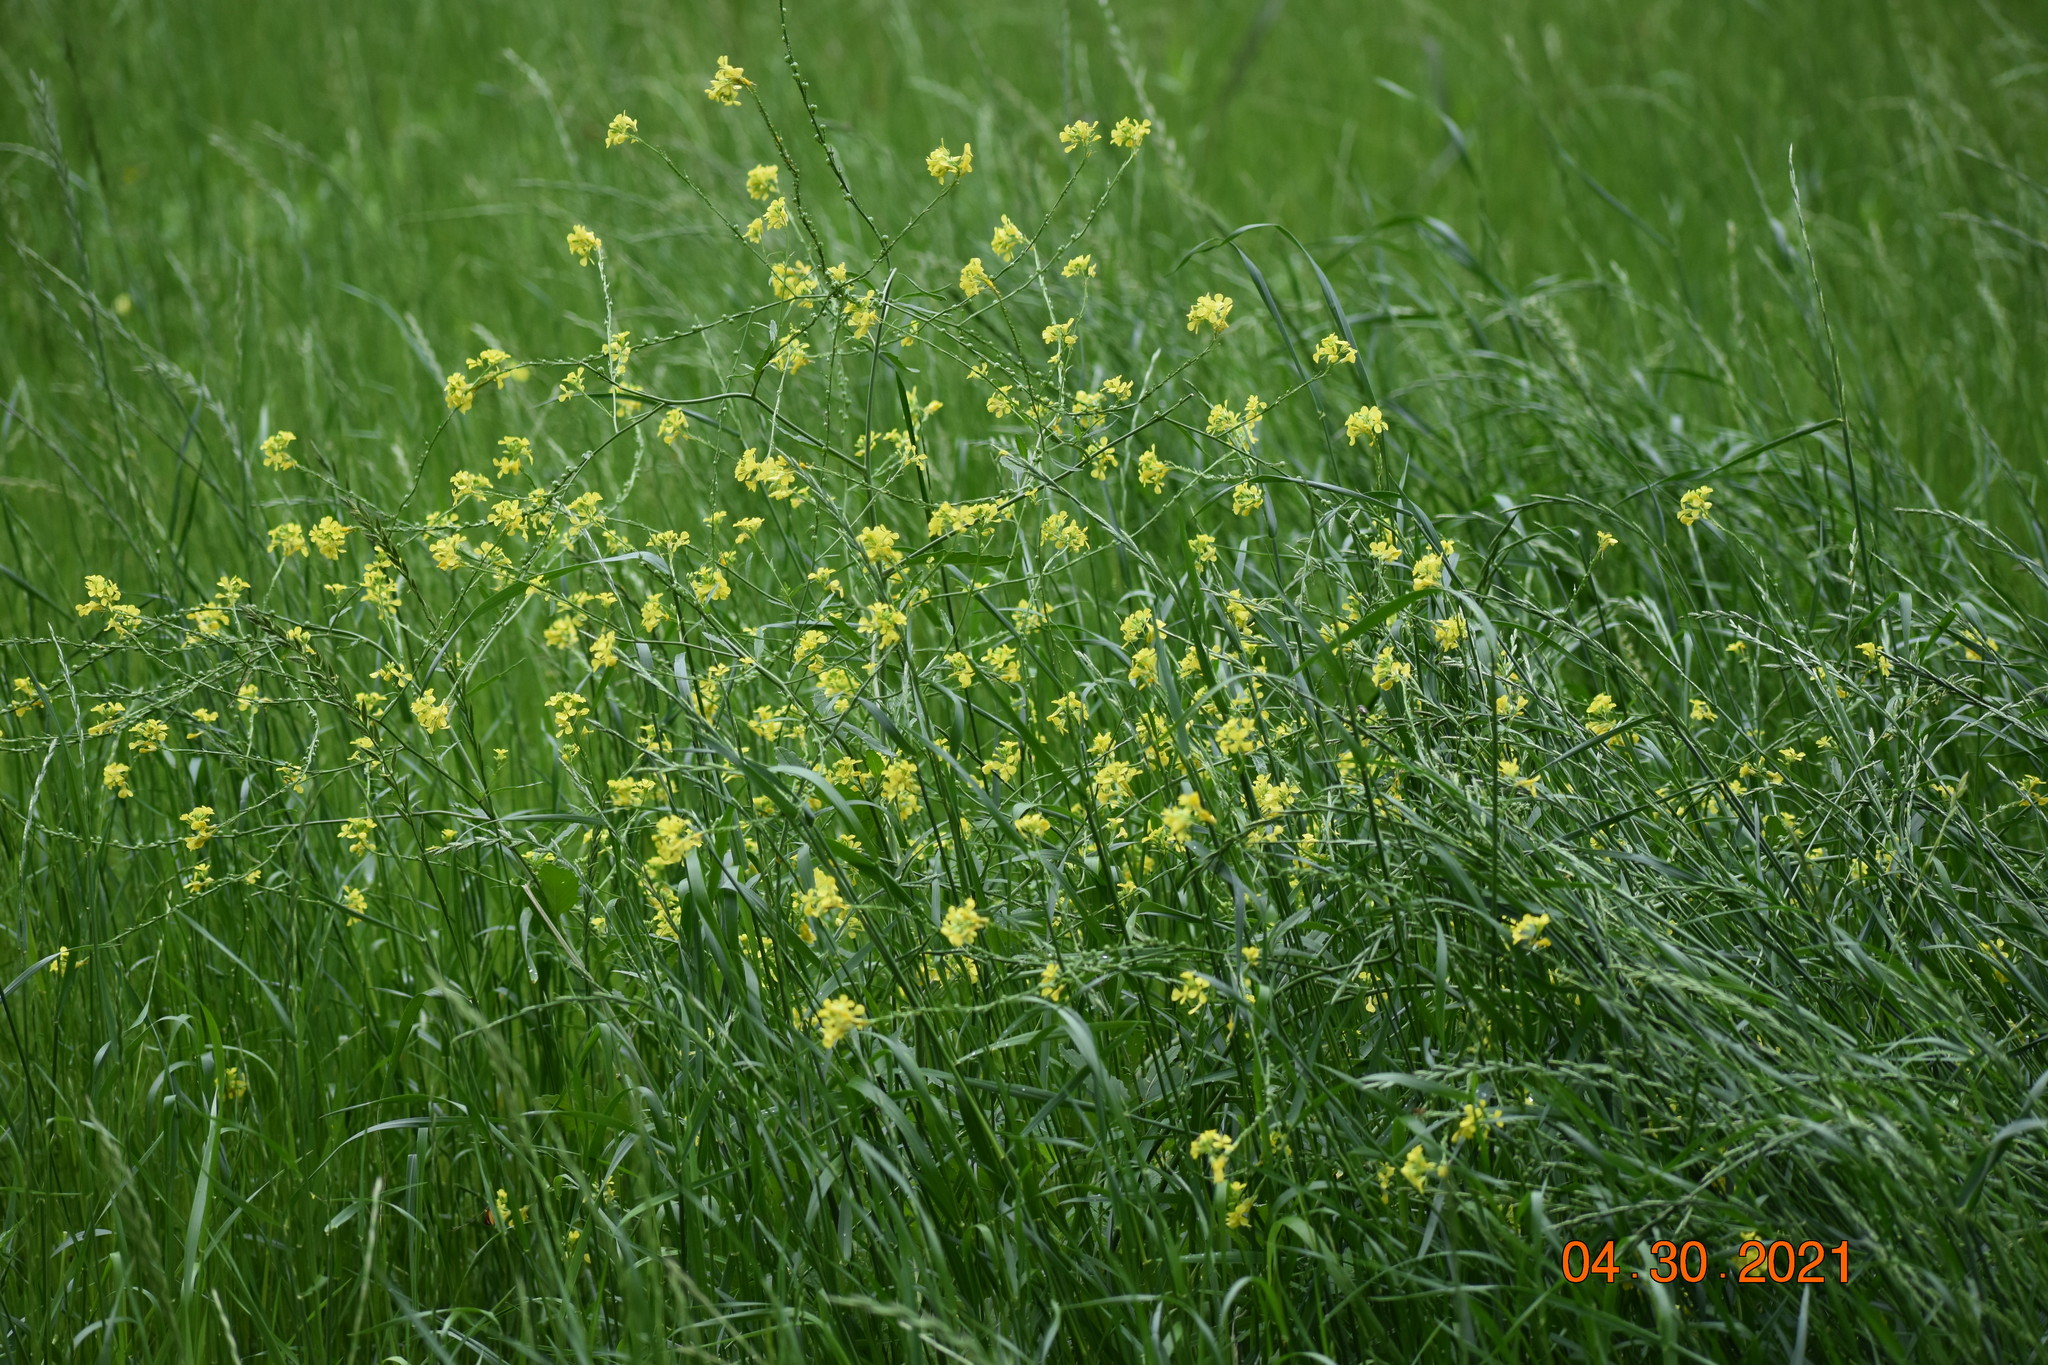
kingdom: Plantae
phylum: Tracheophyta
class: Magnoliopsida
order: Brassicales
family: Brassicaceae
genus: Rapistrum
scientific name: Rapistrum rugosum
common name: Annual bastardcabbage
